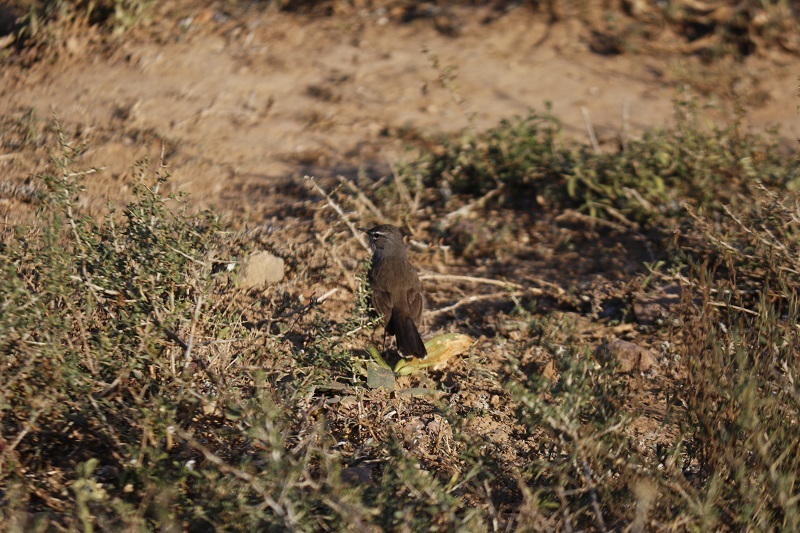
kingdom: Animalia
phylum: Chordata
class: Aves
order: Passeriformes
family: Muscicapidae
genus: Erythropygia
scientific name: Erythropygia coryphoeus
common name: Karoo scrub robin
